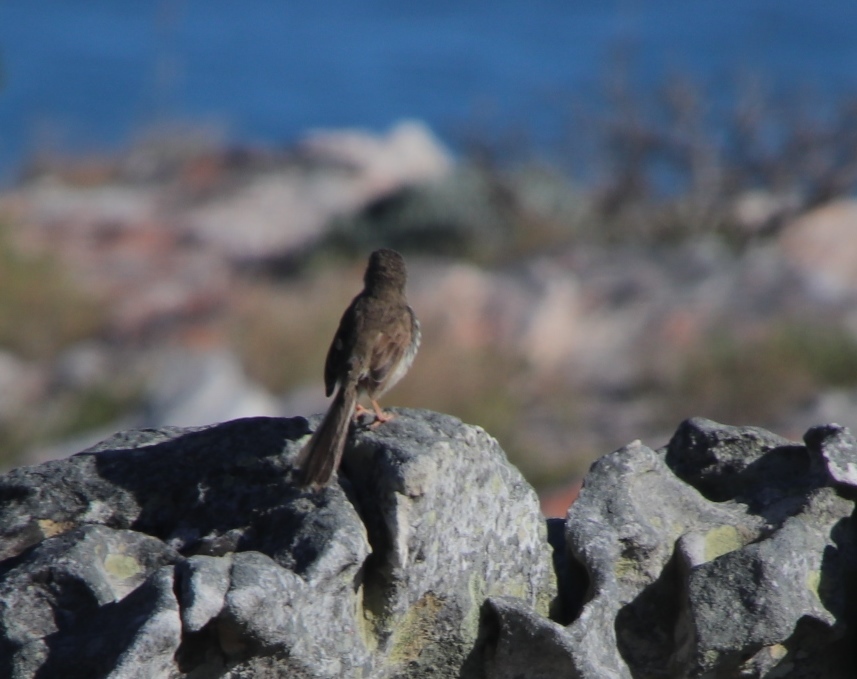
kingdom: Animalia
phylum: Chordata
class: Aves
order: Passeriformes
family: Cisticolidae
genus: Prinia
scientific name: Prinia maculosa
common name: Karoo prinia
